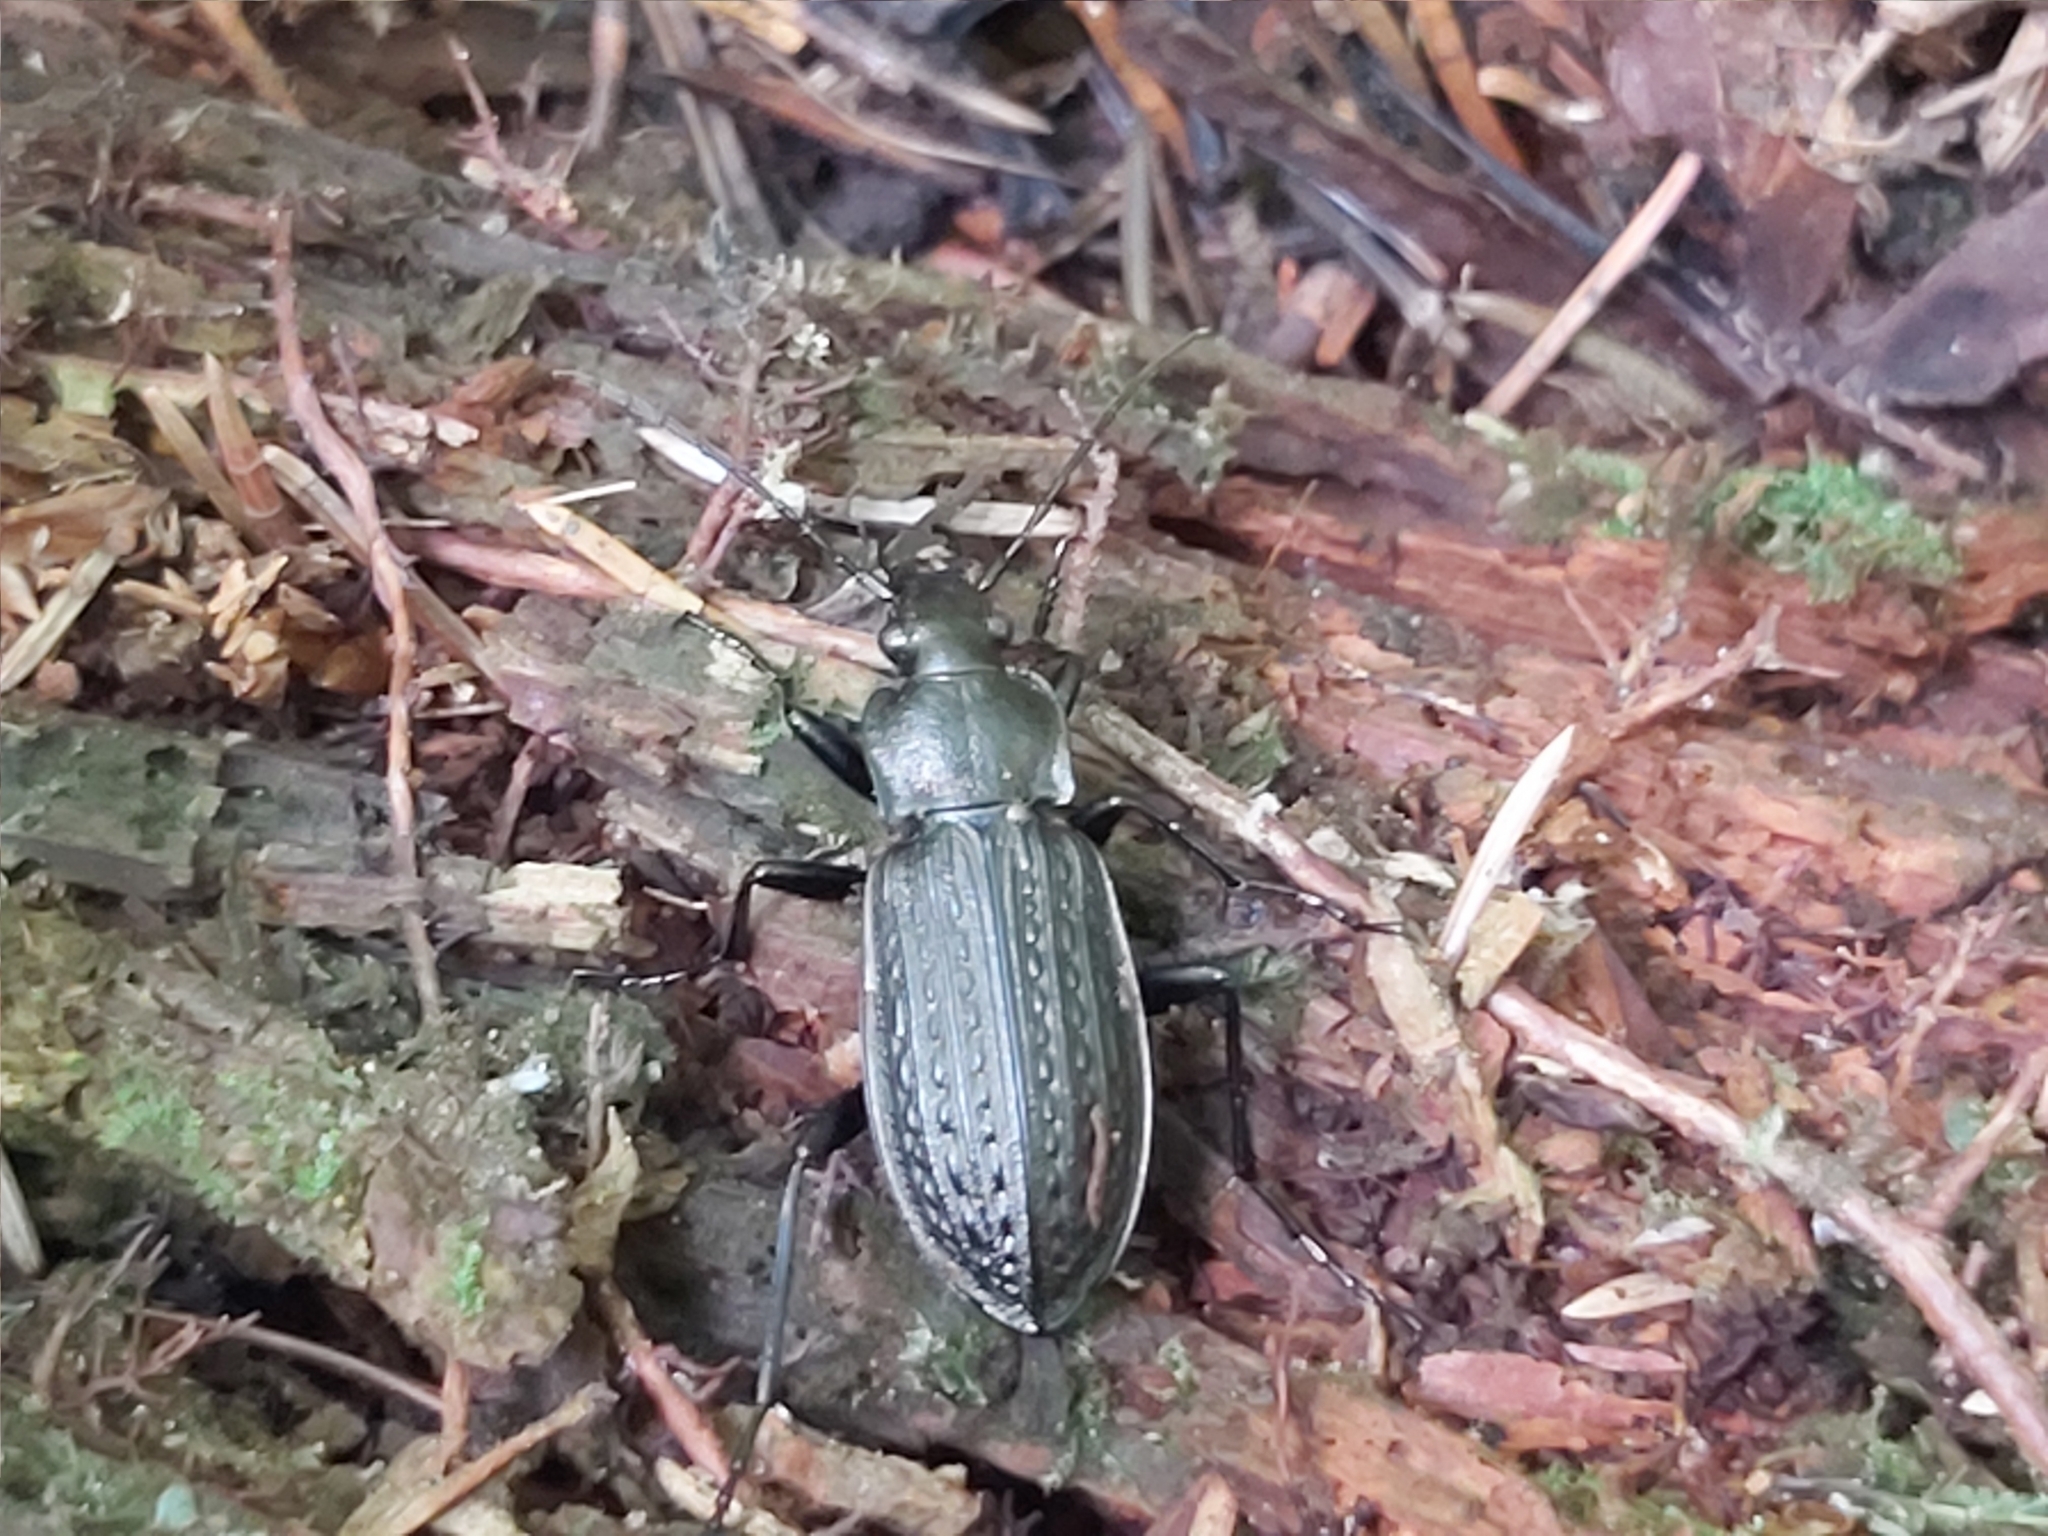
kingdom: Animalia
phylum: Arthropoda
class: Insecta
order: Coleoptera
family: Carabidae
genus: Carabus
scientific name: Carabus granulatus
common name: Granulate ground beetle
